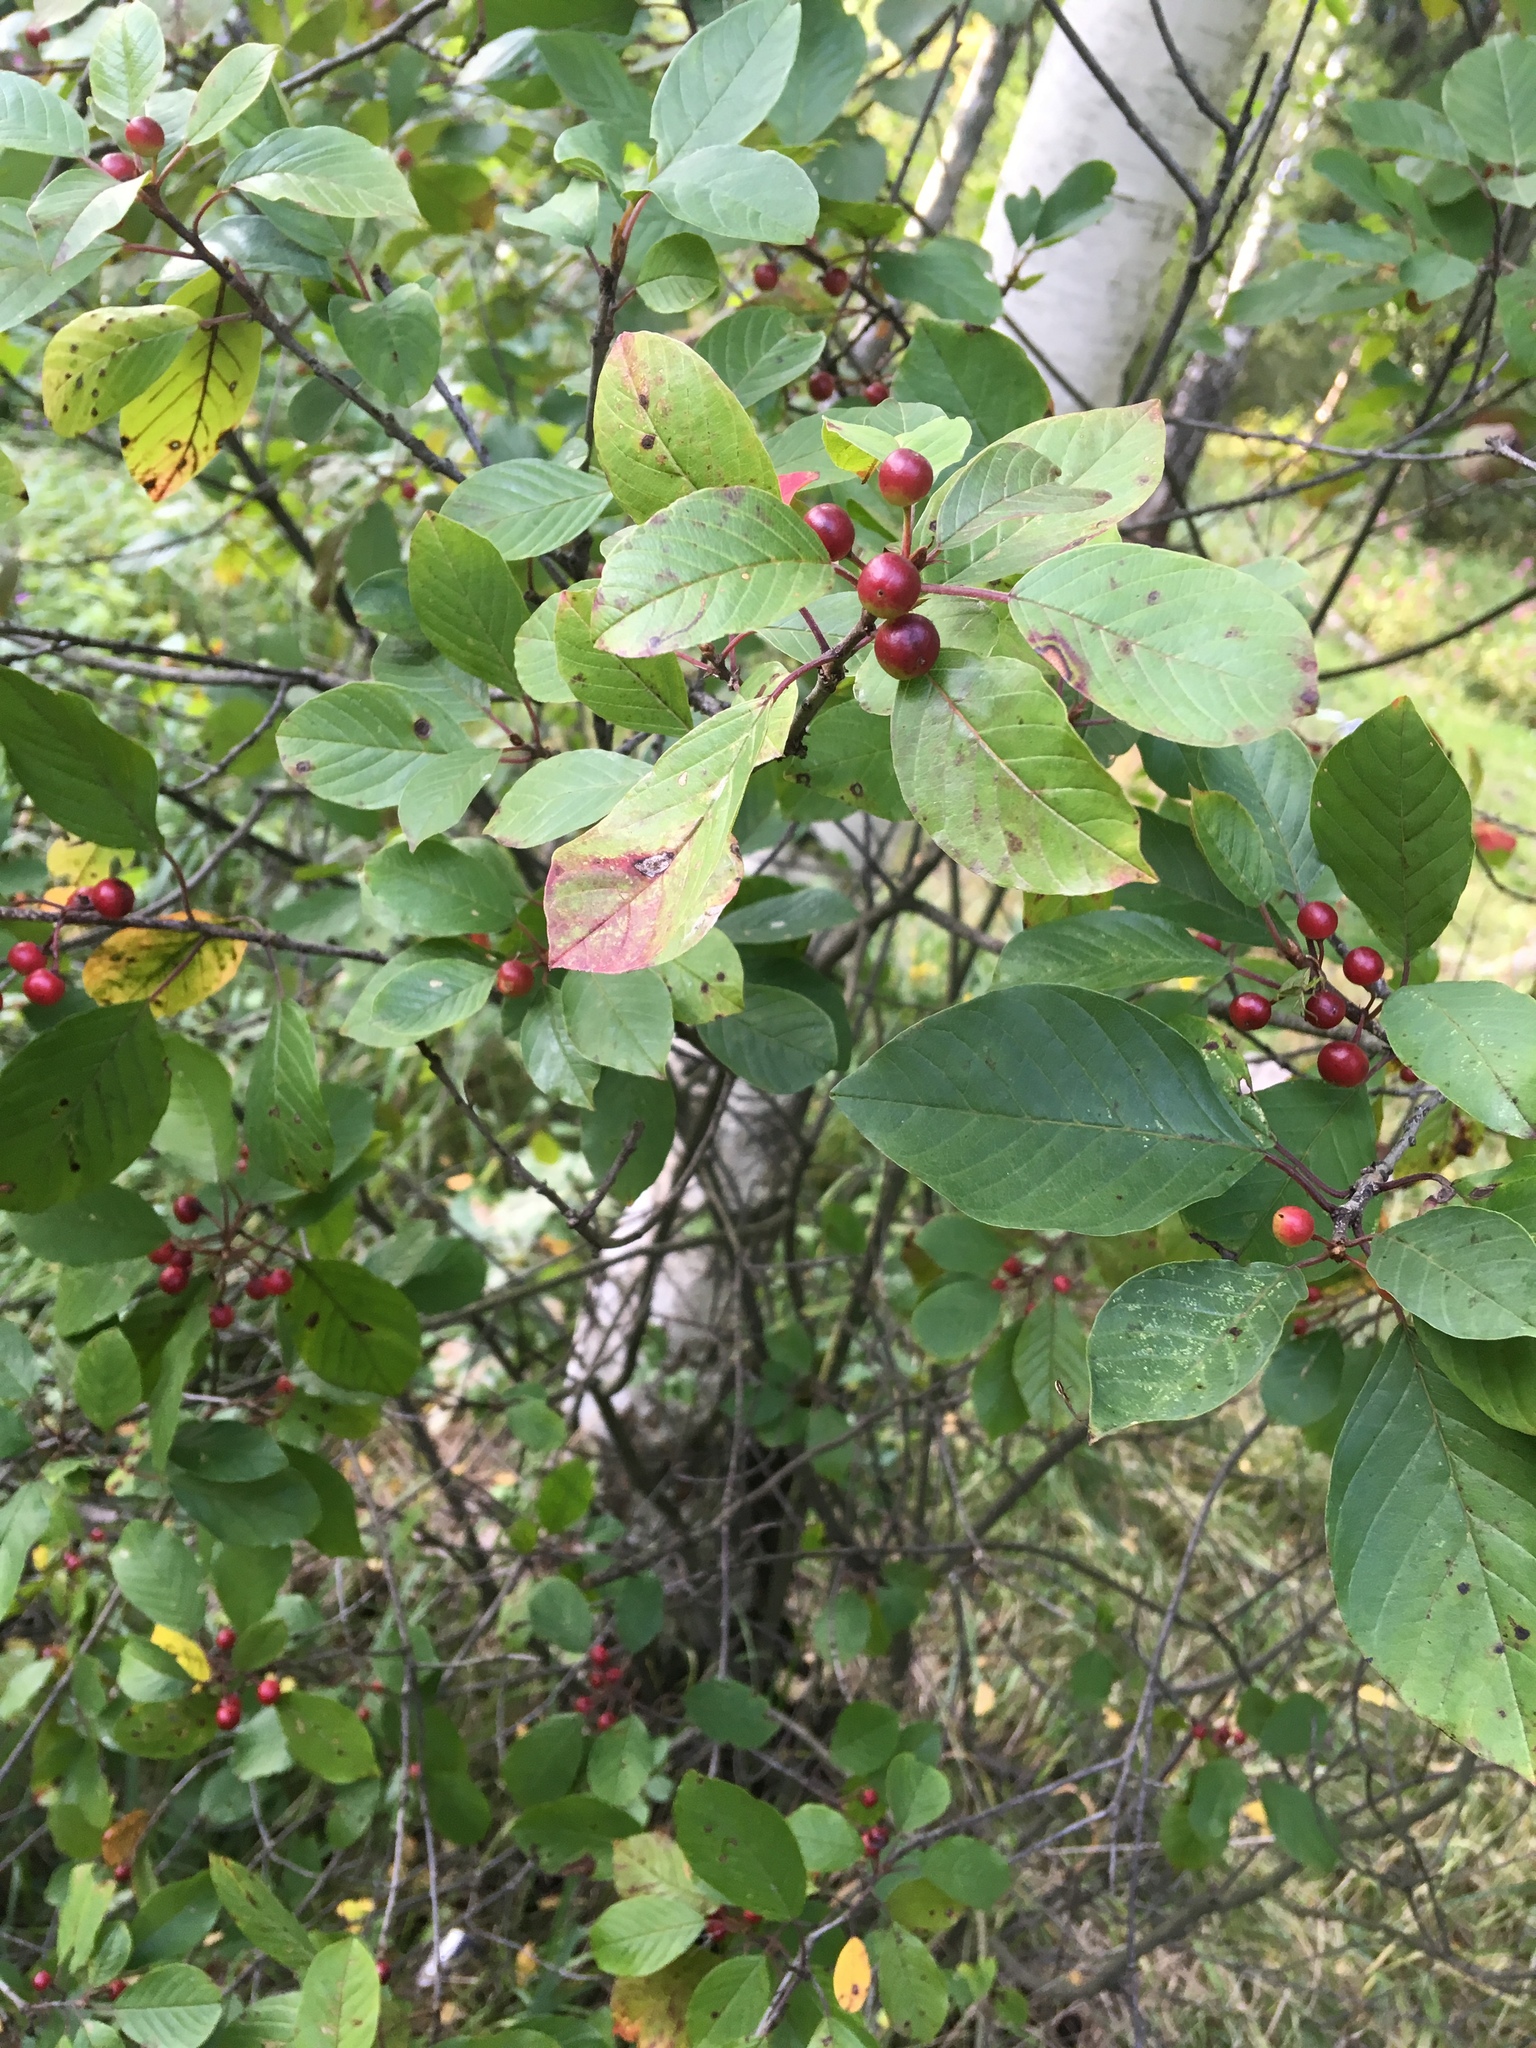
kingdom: Plantae
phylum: Tracheophyta
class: Magnoliopsida
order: Rosales
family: Rhamnaceae
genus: Frangula
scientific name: Frangula alnus
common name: Alder buckthorn
